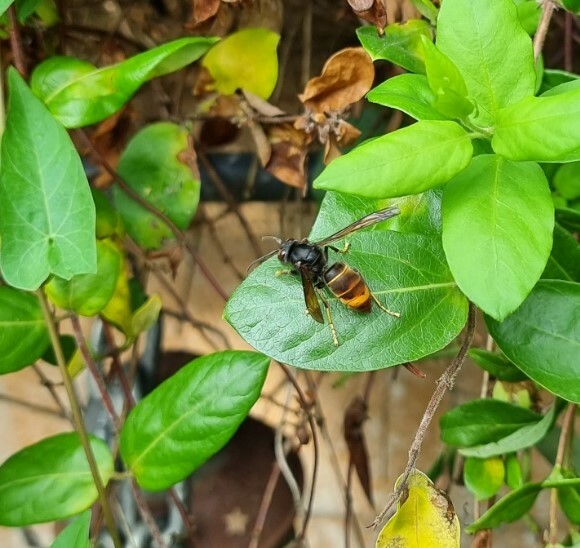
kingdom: Animalia
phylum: Arthropoda
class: Insecta
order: Hymenoptera
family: Vespidae
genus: Vespa
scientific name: Vespa velutina
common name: Asian hornet
